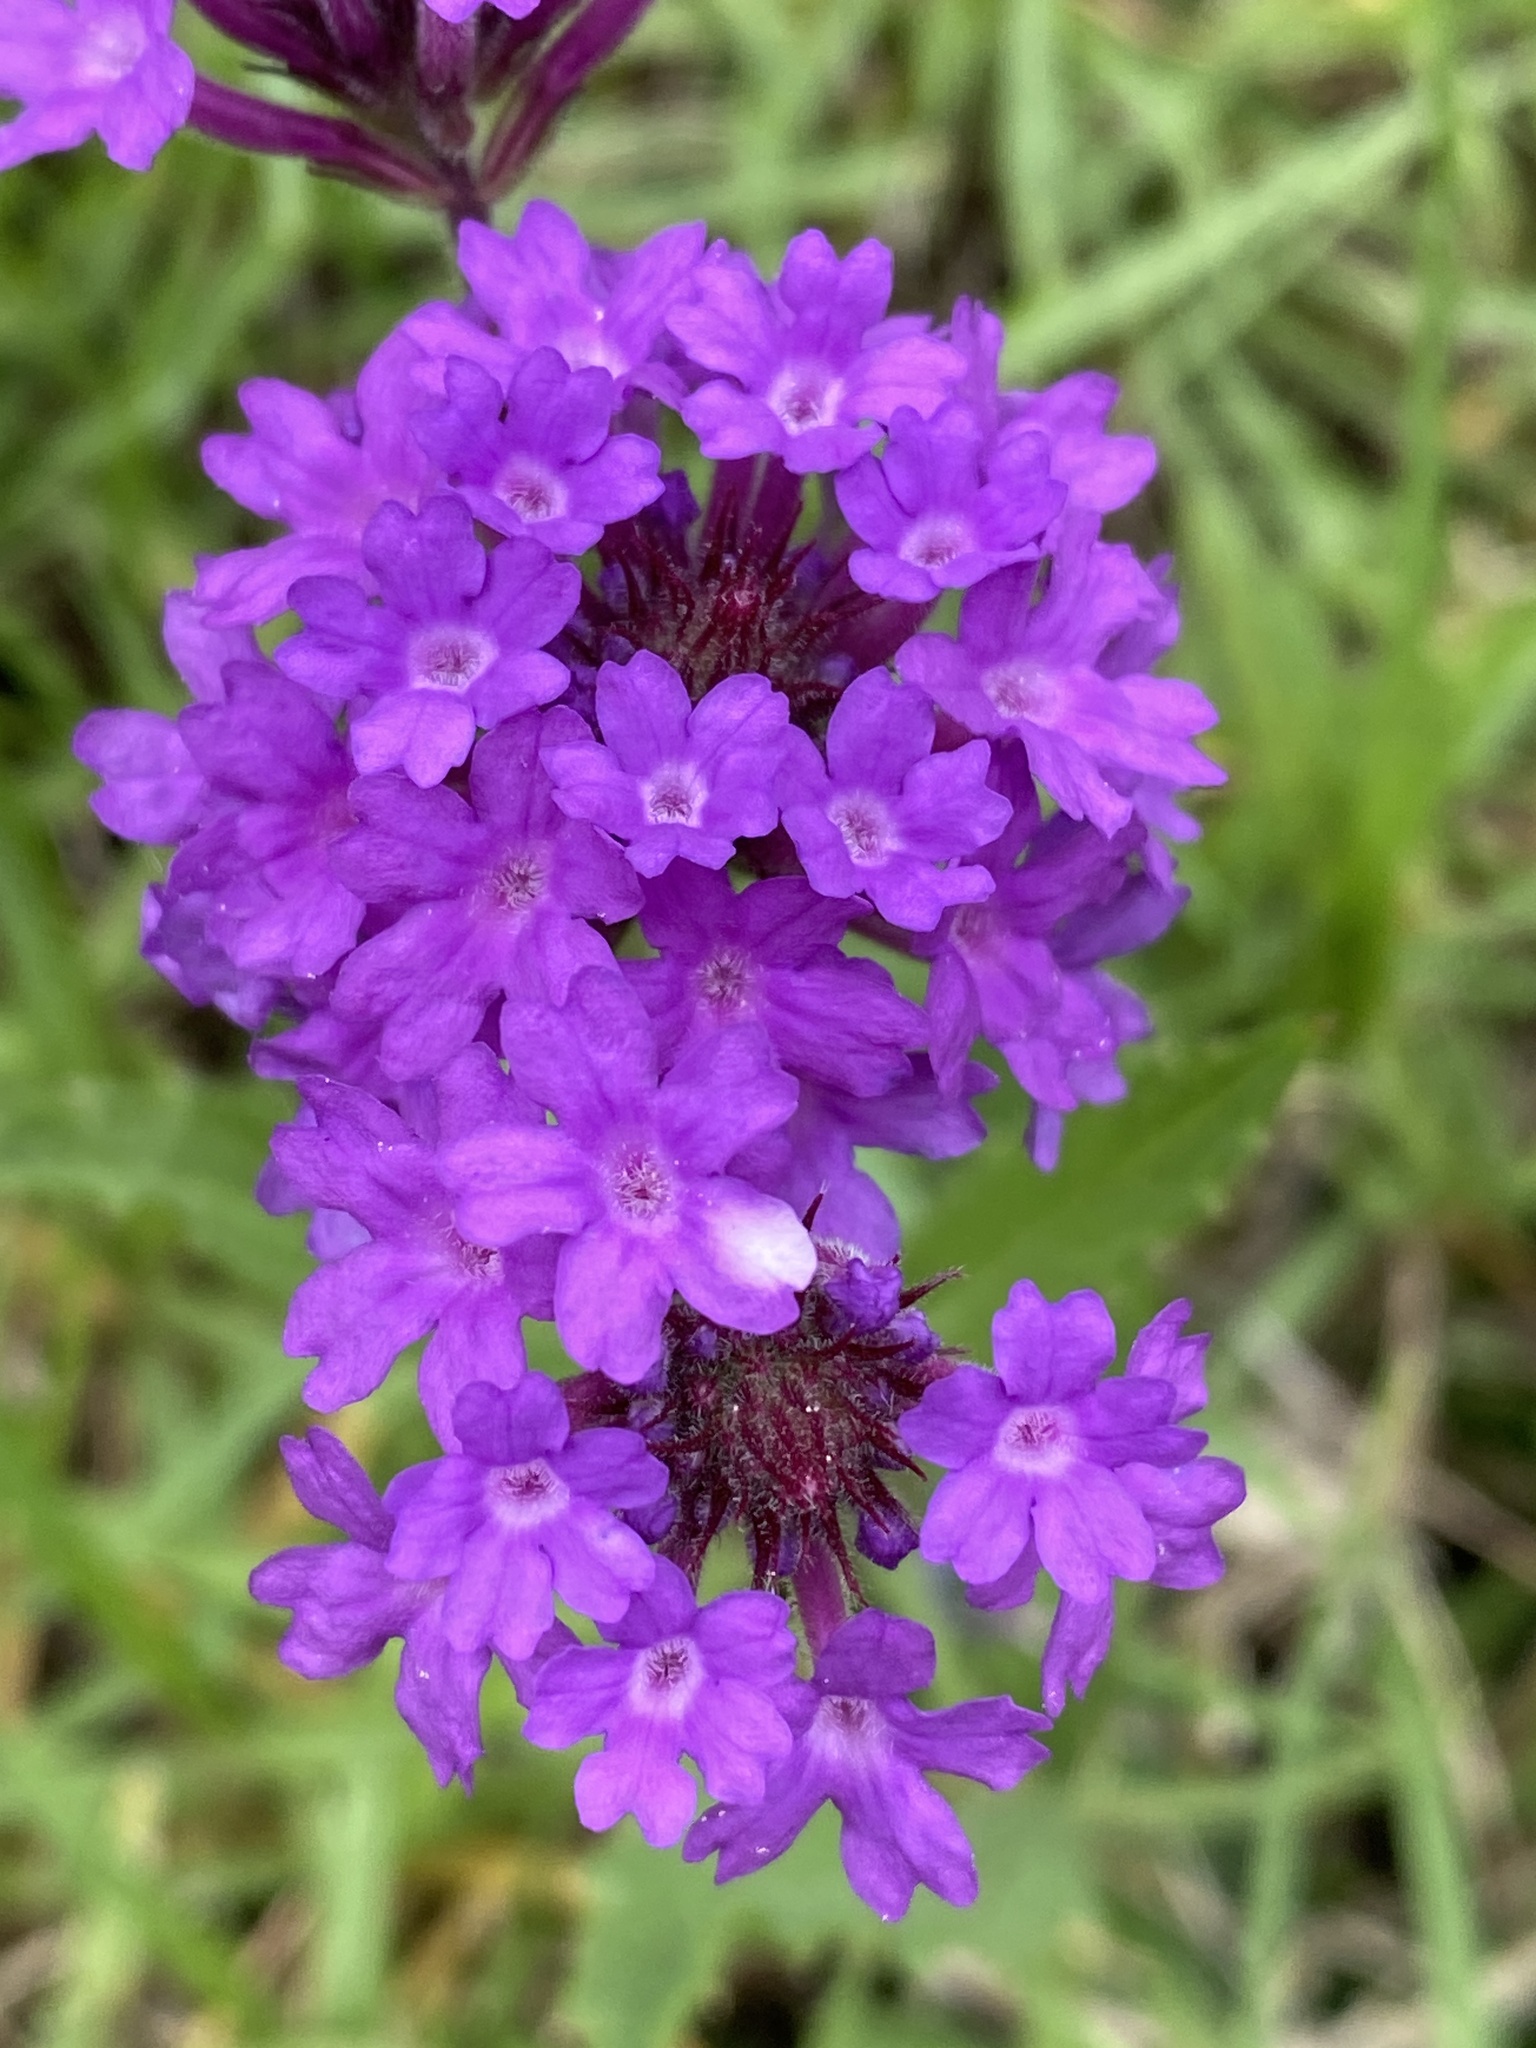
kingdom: Plantae
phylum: Tracheophyta
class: Magnoliopsida
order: Lamiales
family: Verbenaceae
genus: Verbena
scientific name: Verbena rigida
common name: Slender vervain
